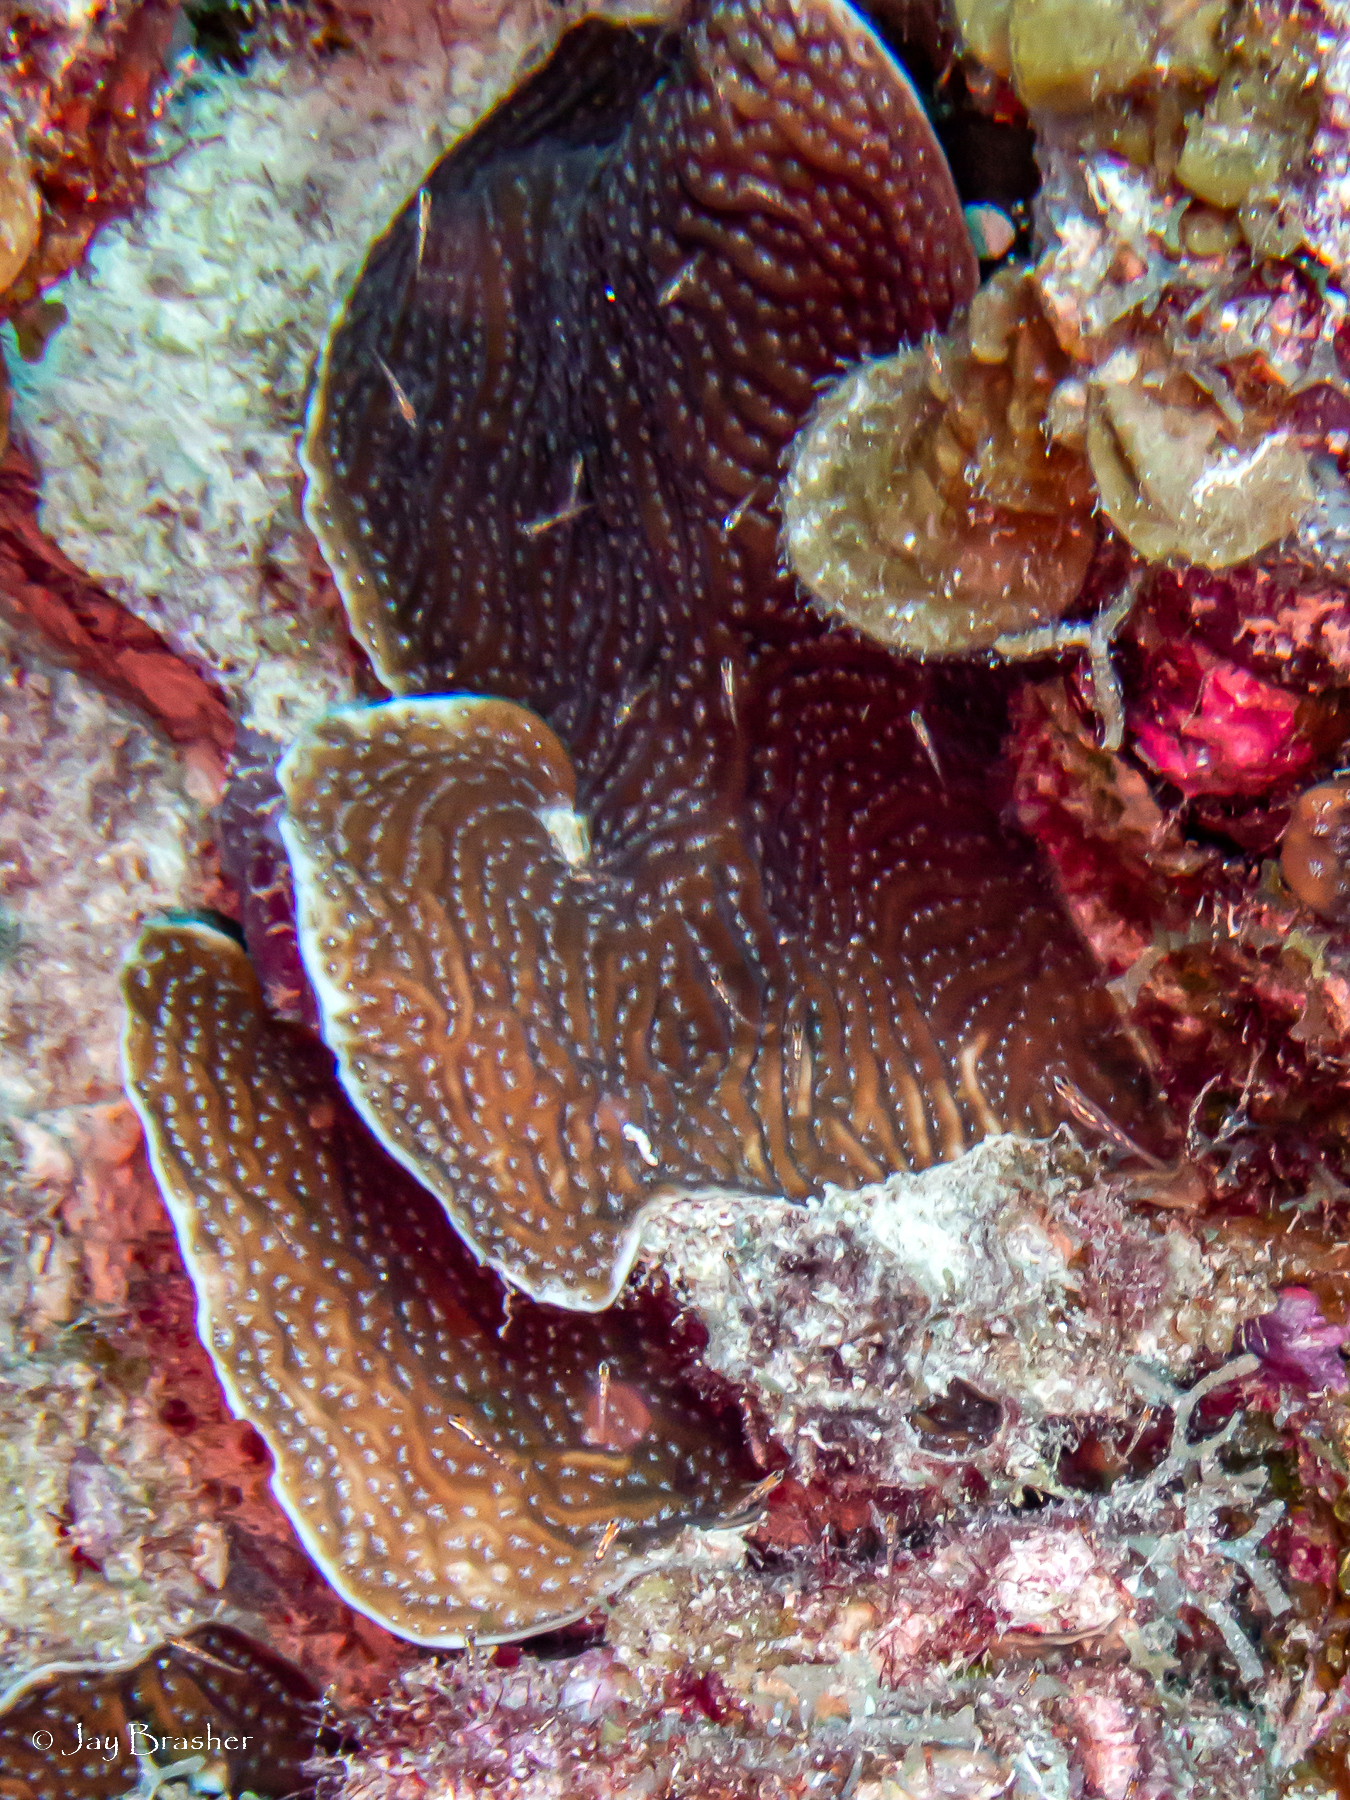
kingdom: Animalia
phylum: Cnidaria
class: Anthozoa
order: Scleractinia
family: Agariciidae
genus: Agaricia
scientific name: Agaricia lamarcki
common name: Lamarck's sheet coral
